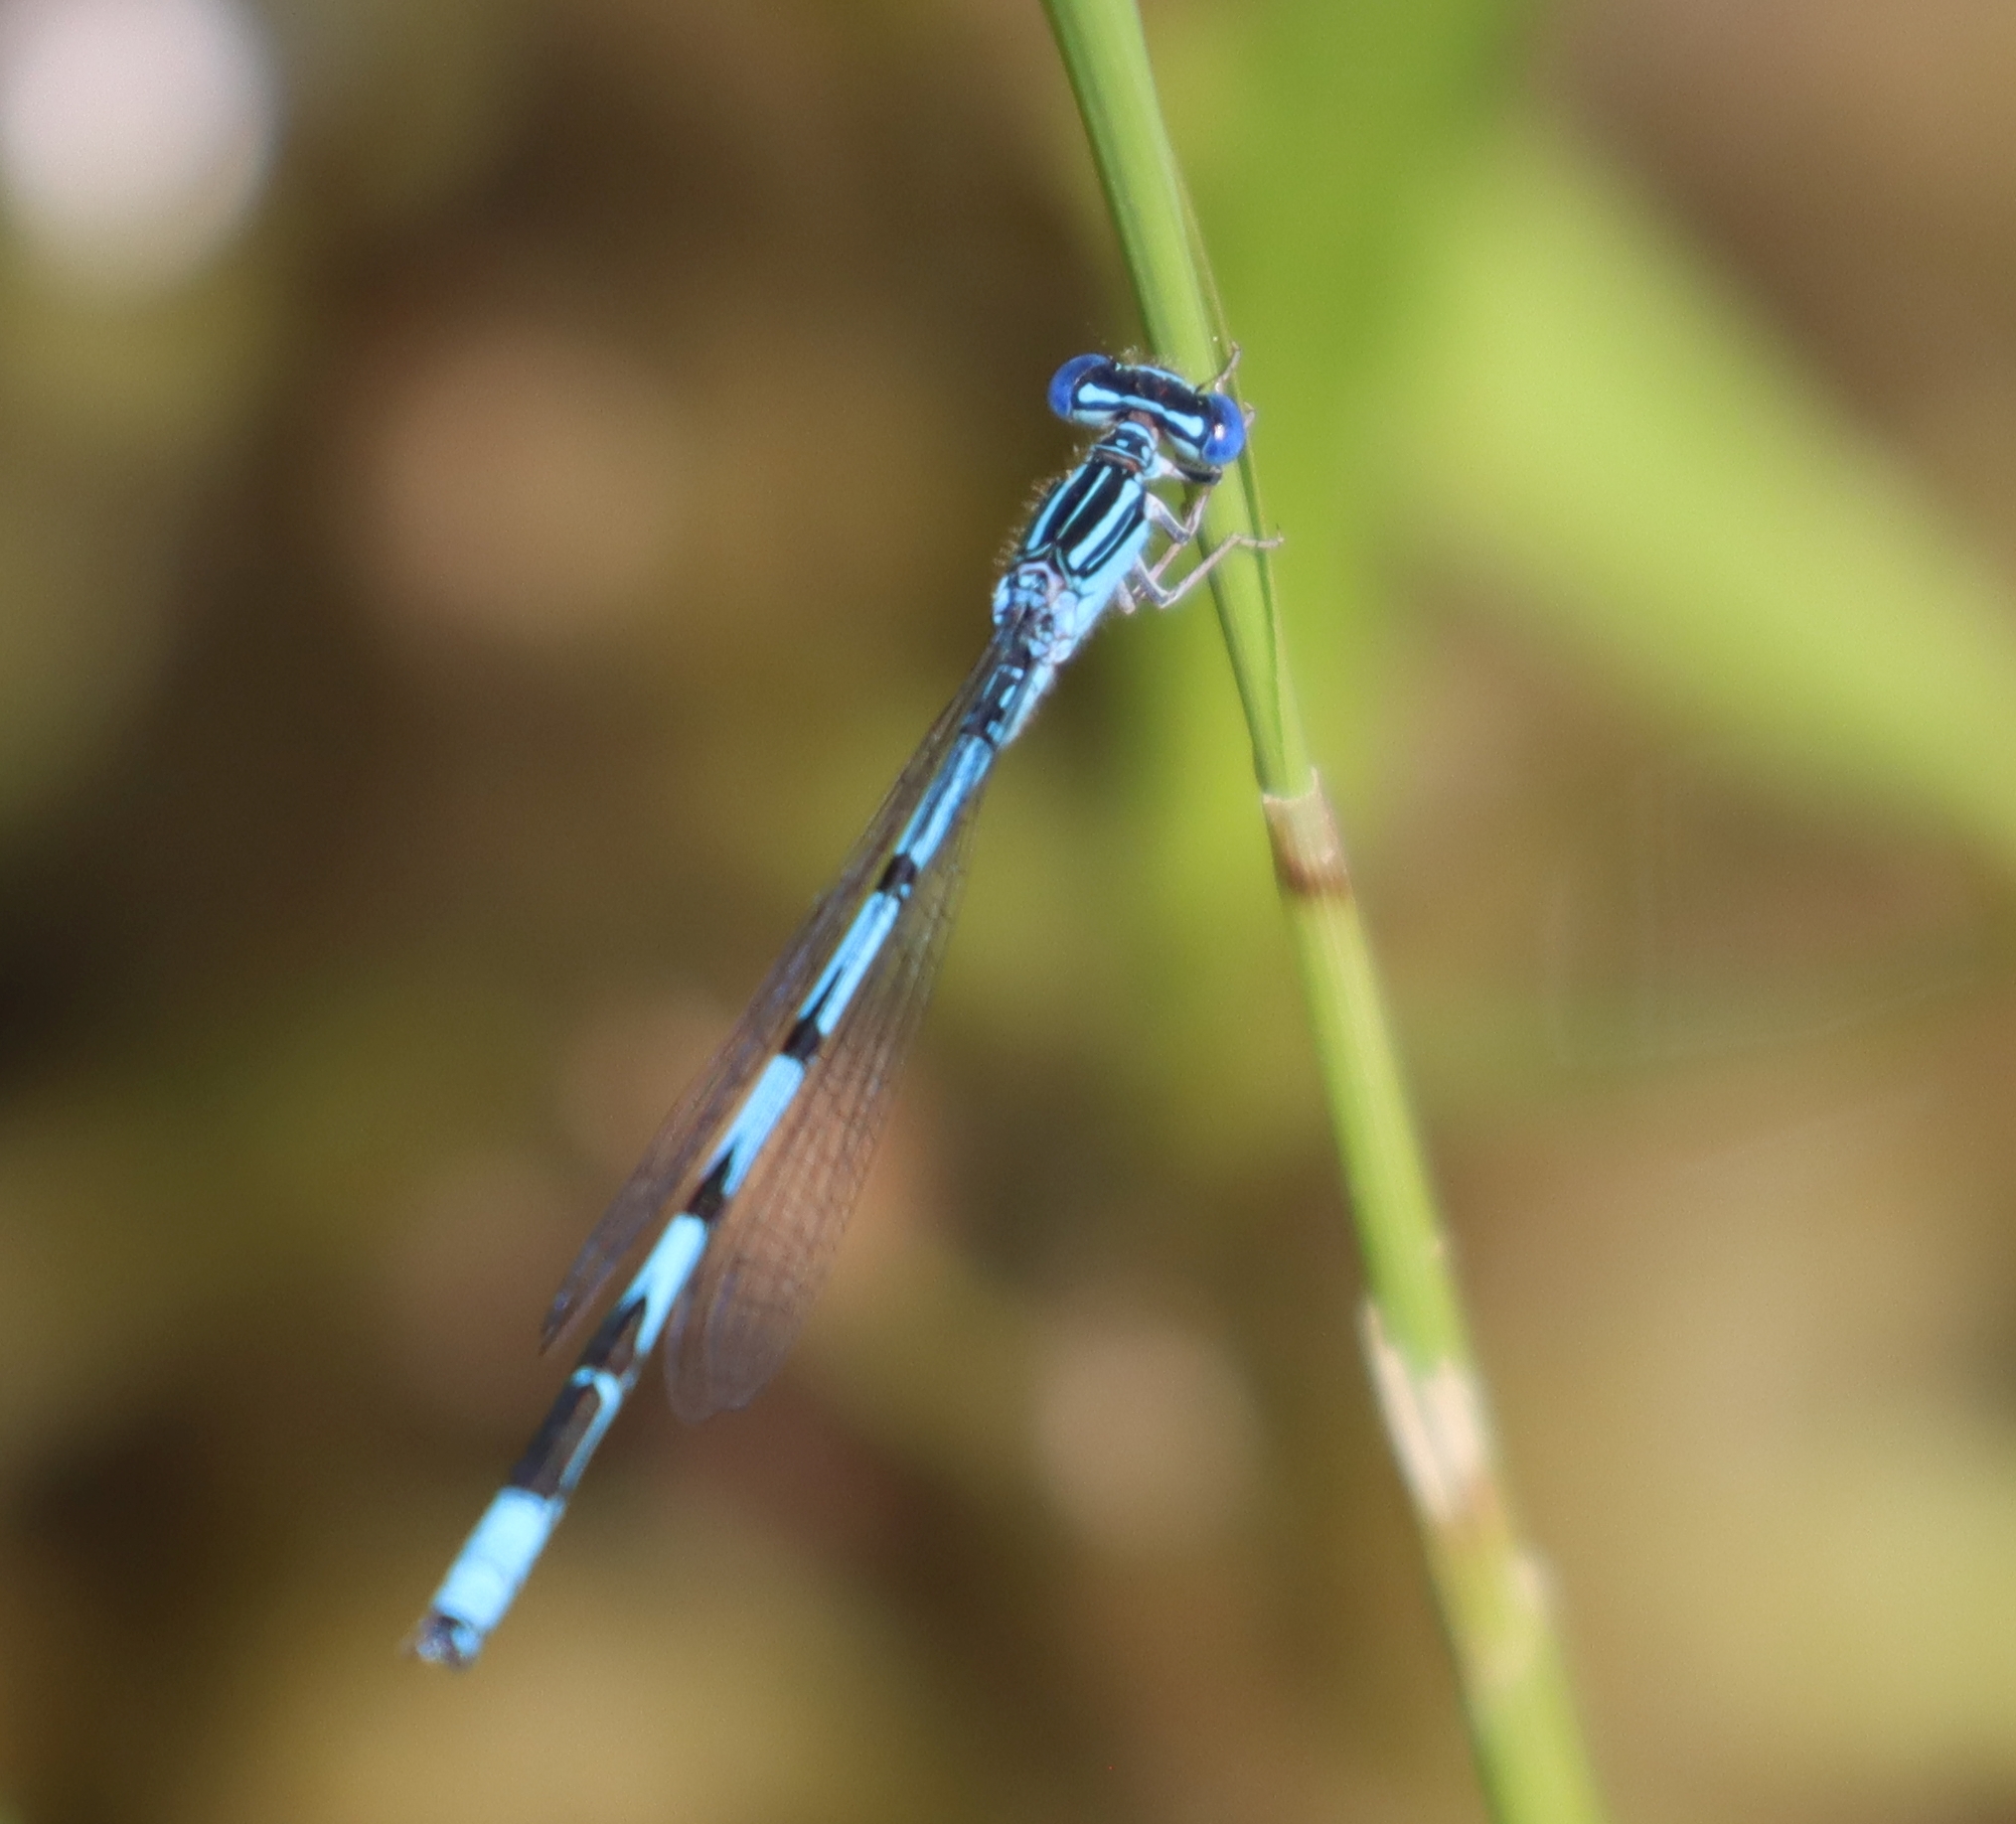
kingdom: Animalia
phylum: Arthropoda
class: Insecta
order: Odonata
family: Coenagrionidae
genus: Enallagma
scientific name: Enallagma basidens
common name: Double-striped bluet
